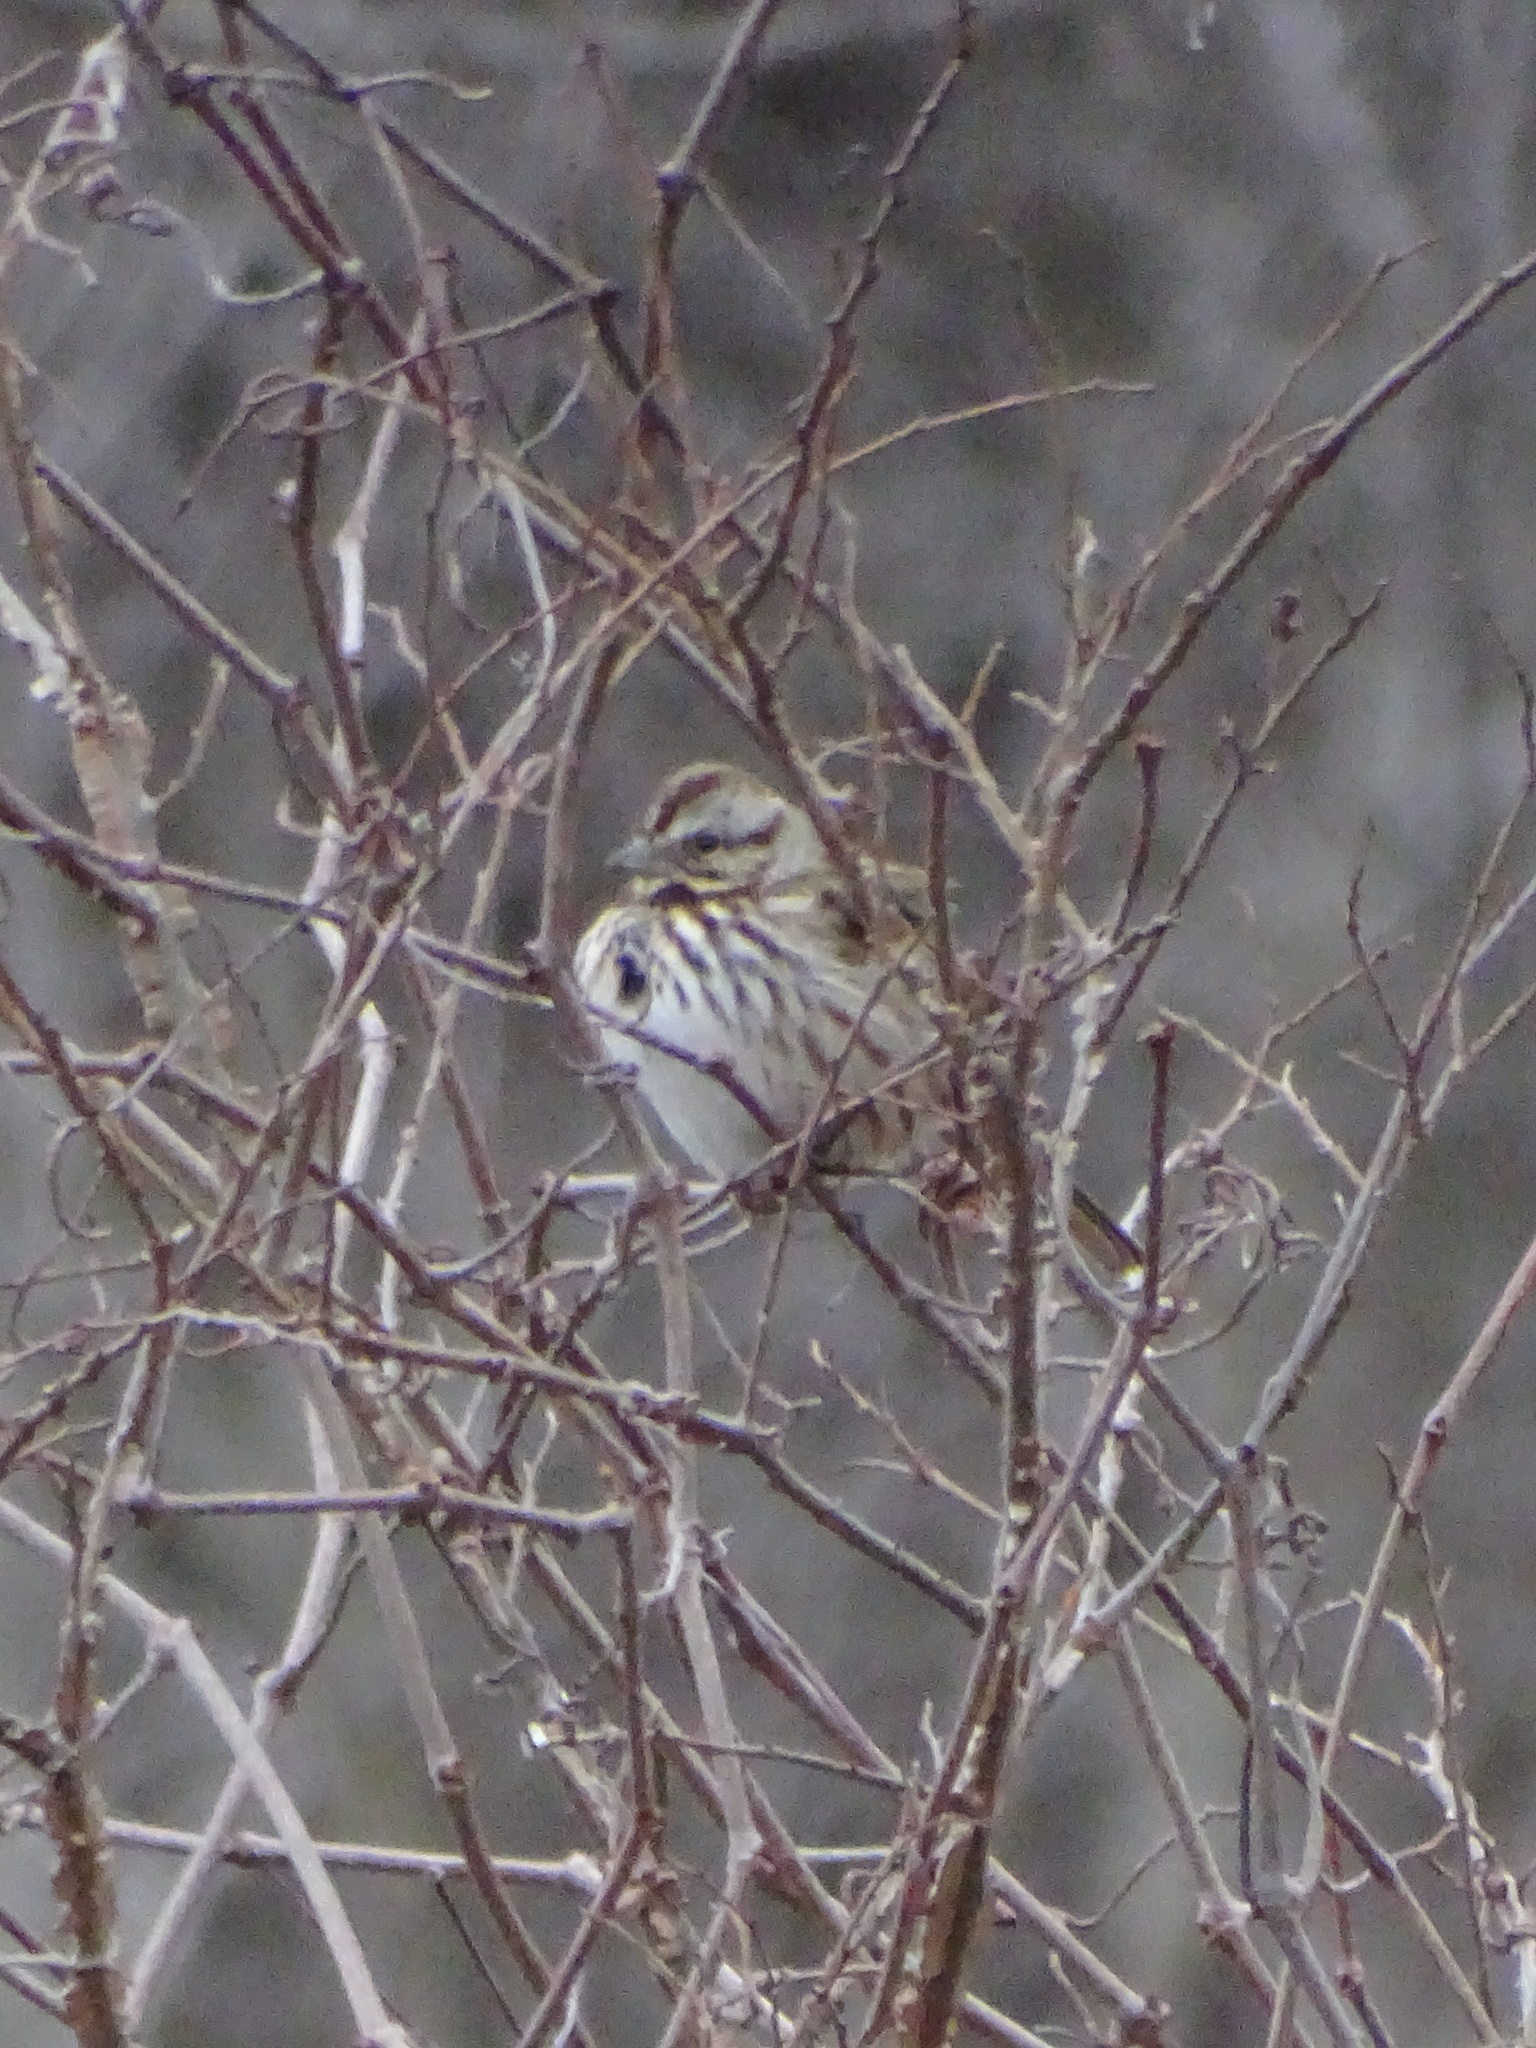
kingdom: Animalia
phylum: Chordata
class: Aves
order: Passeriformes
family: Passerellidae
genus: Melospiza
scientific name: Melospiza melodia
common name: Song sparrow
